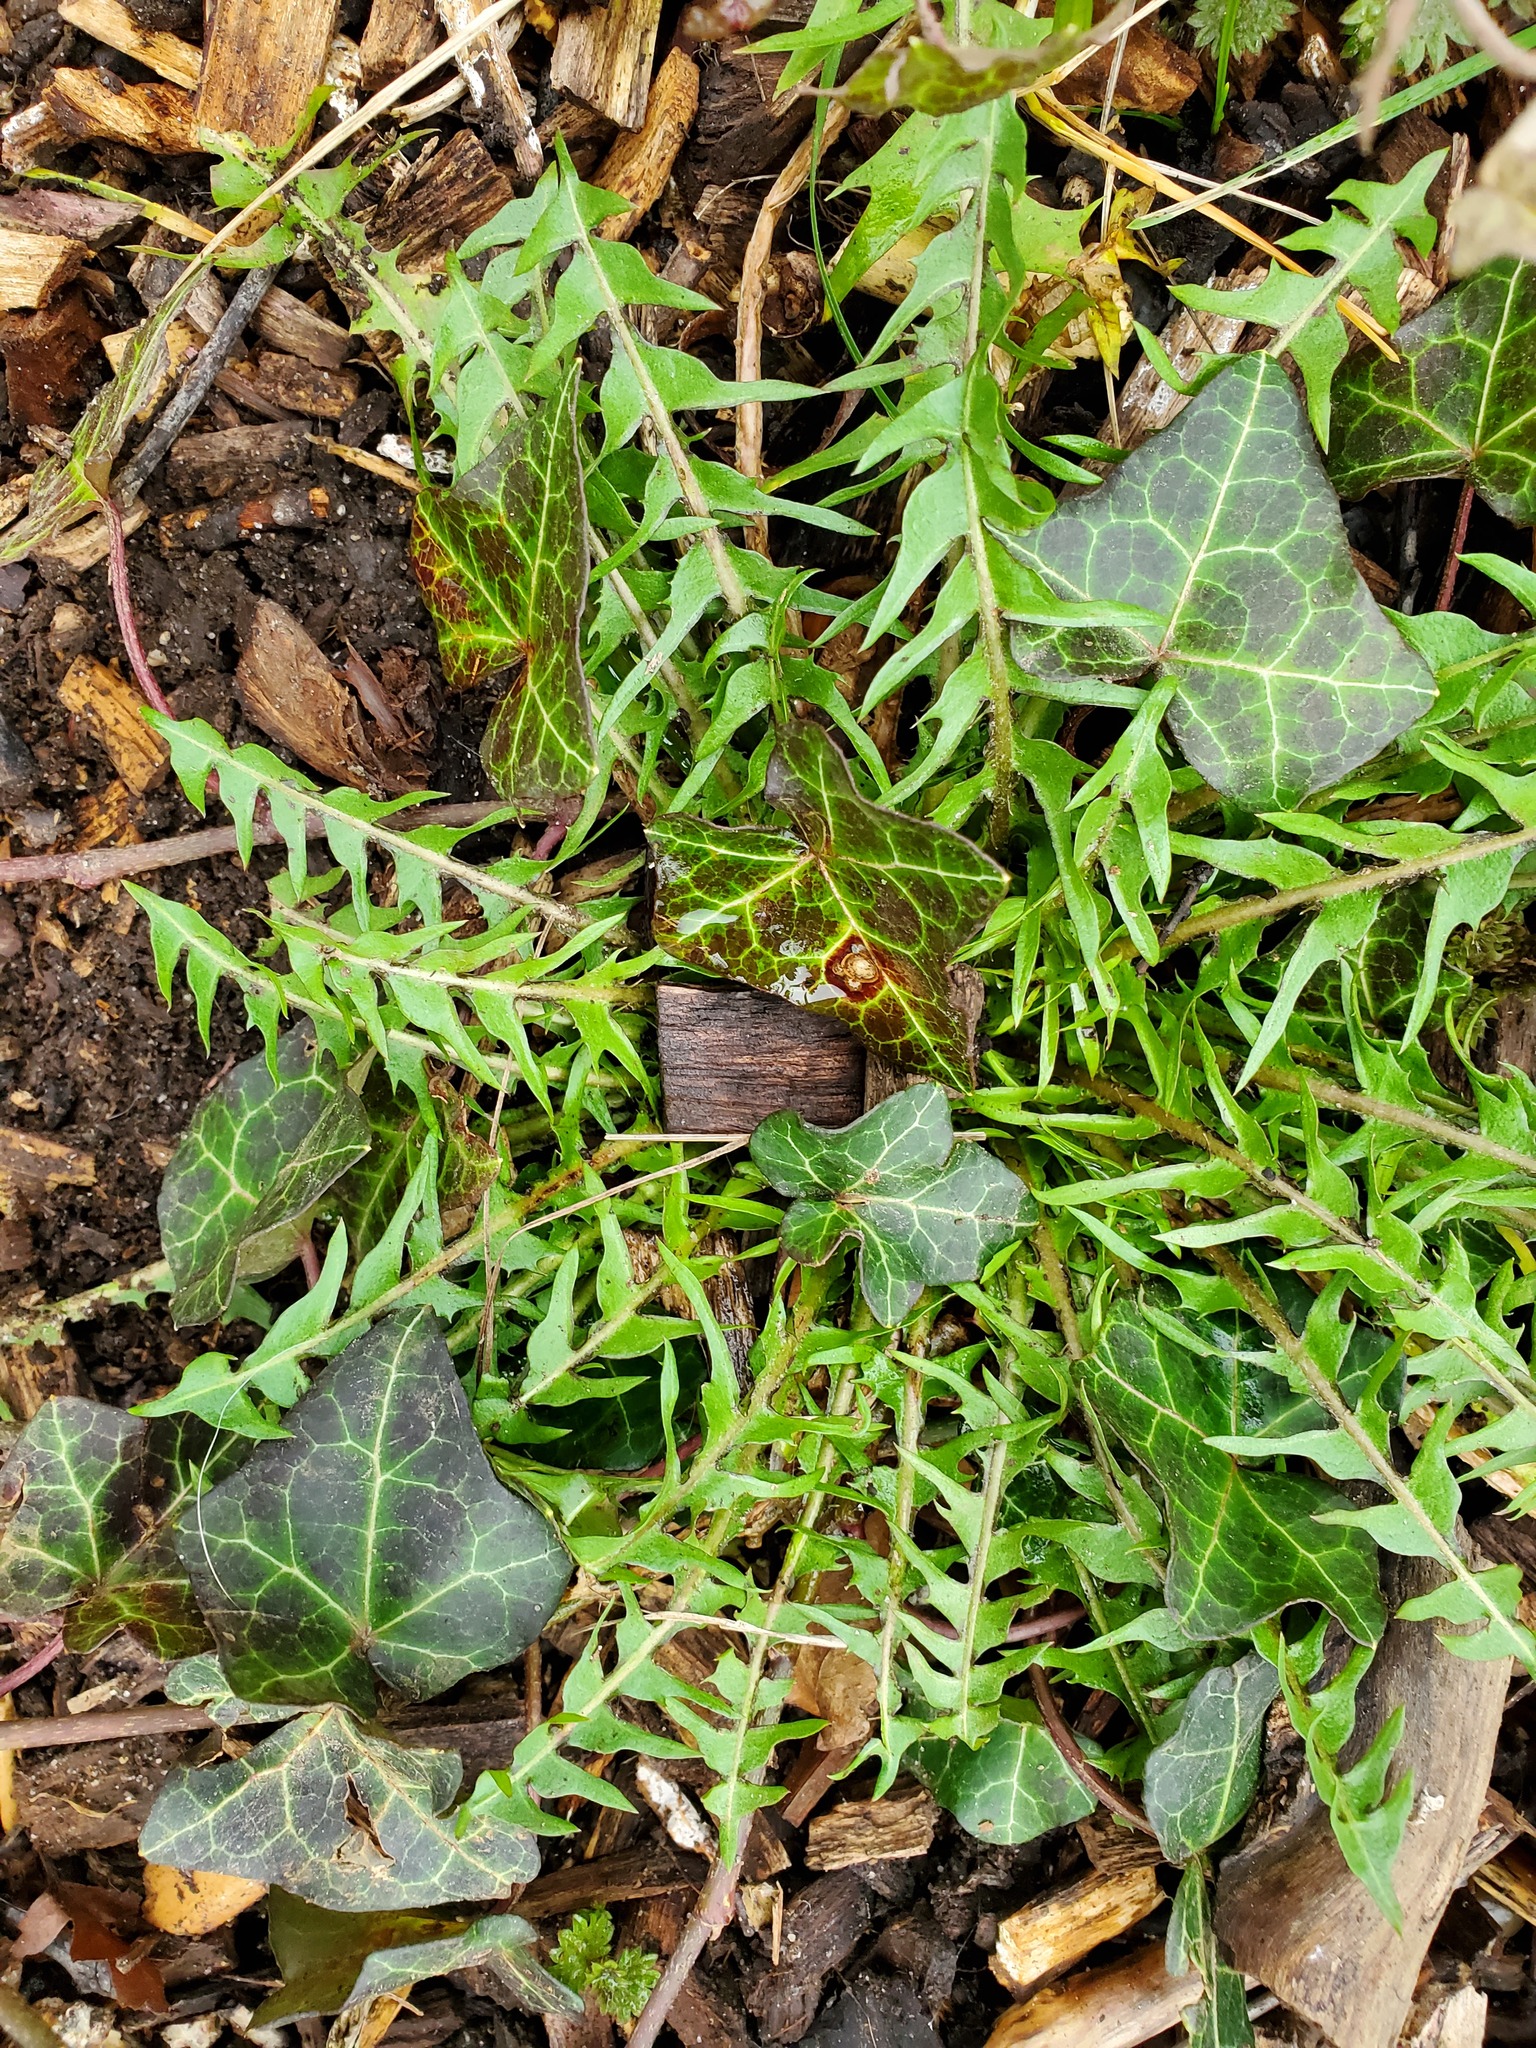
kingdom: Plantae
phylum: Tracheophyta
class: Magnoliopsida
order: Asterales
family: Asteraceae
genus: Sonchus
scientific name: Sonchus oleraceus
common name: Common sowthistle
